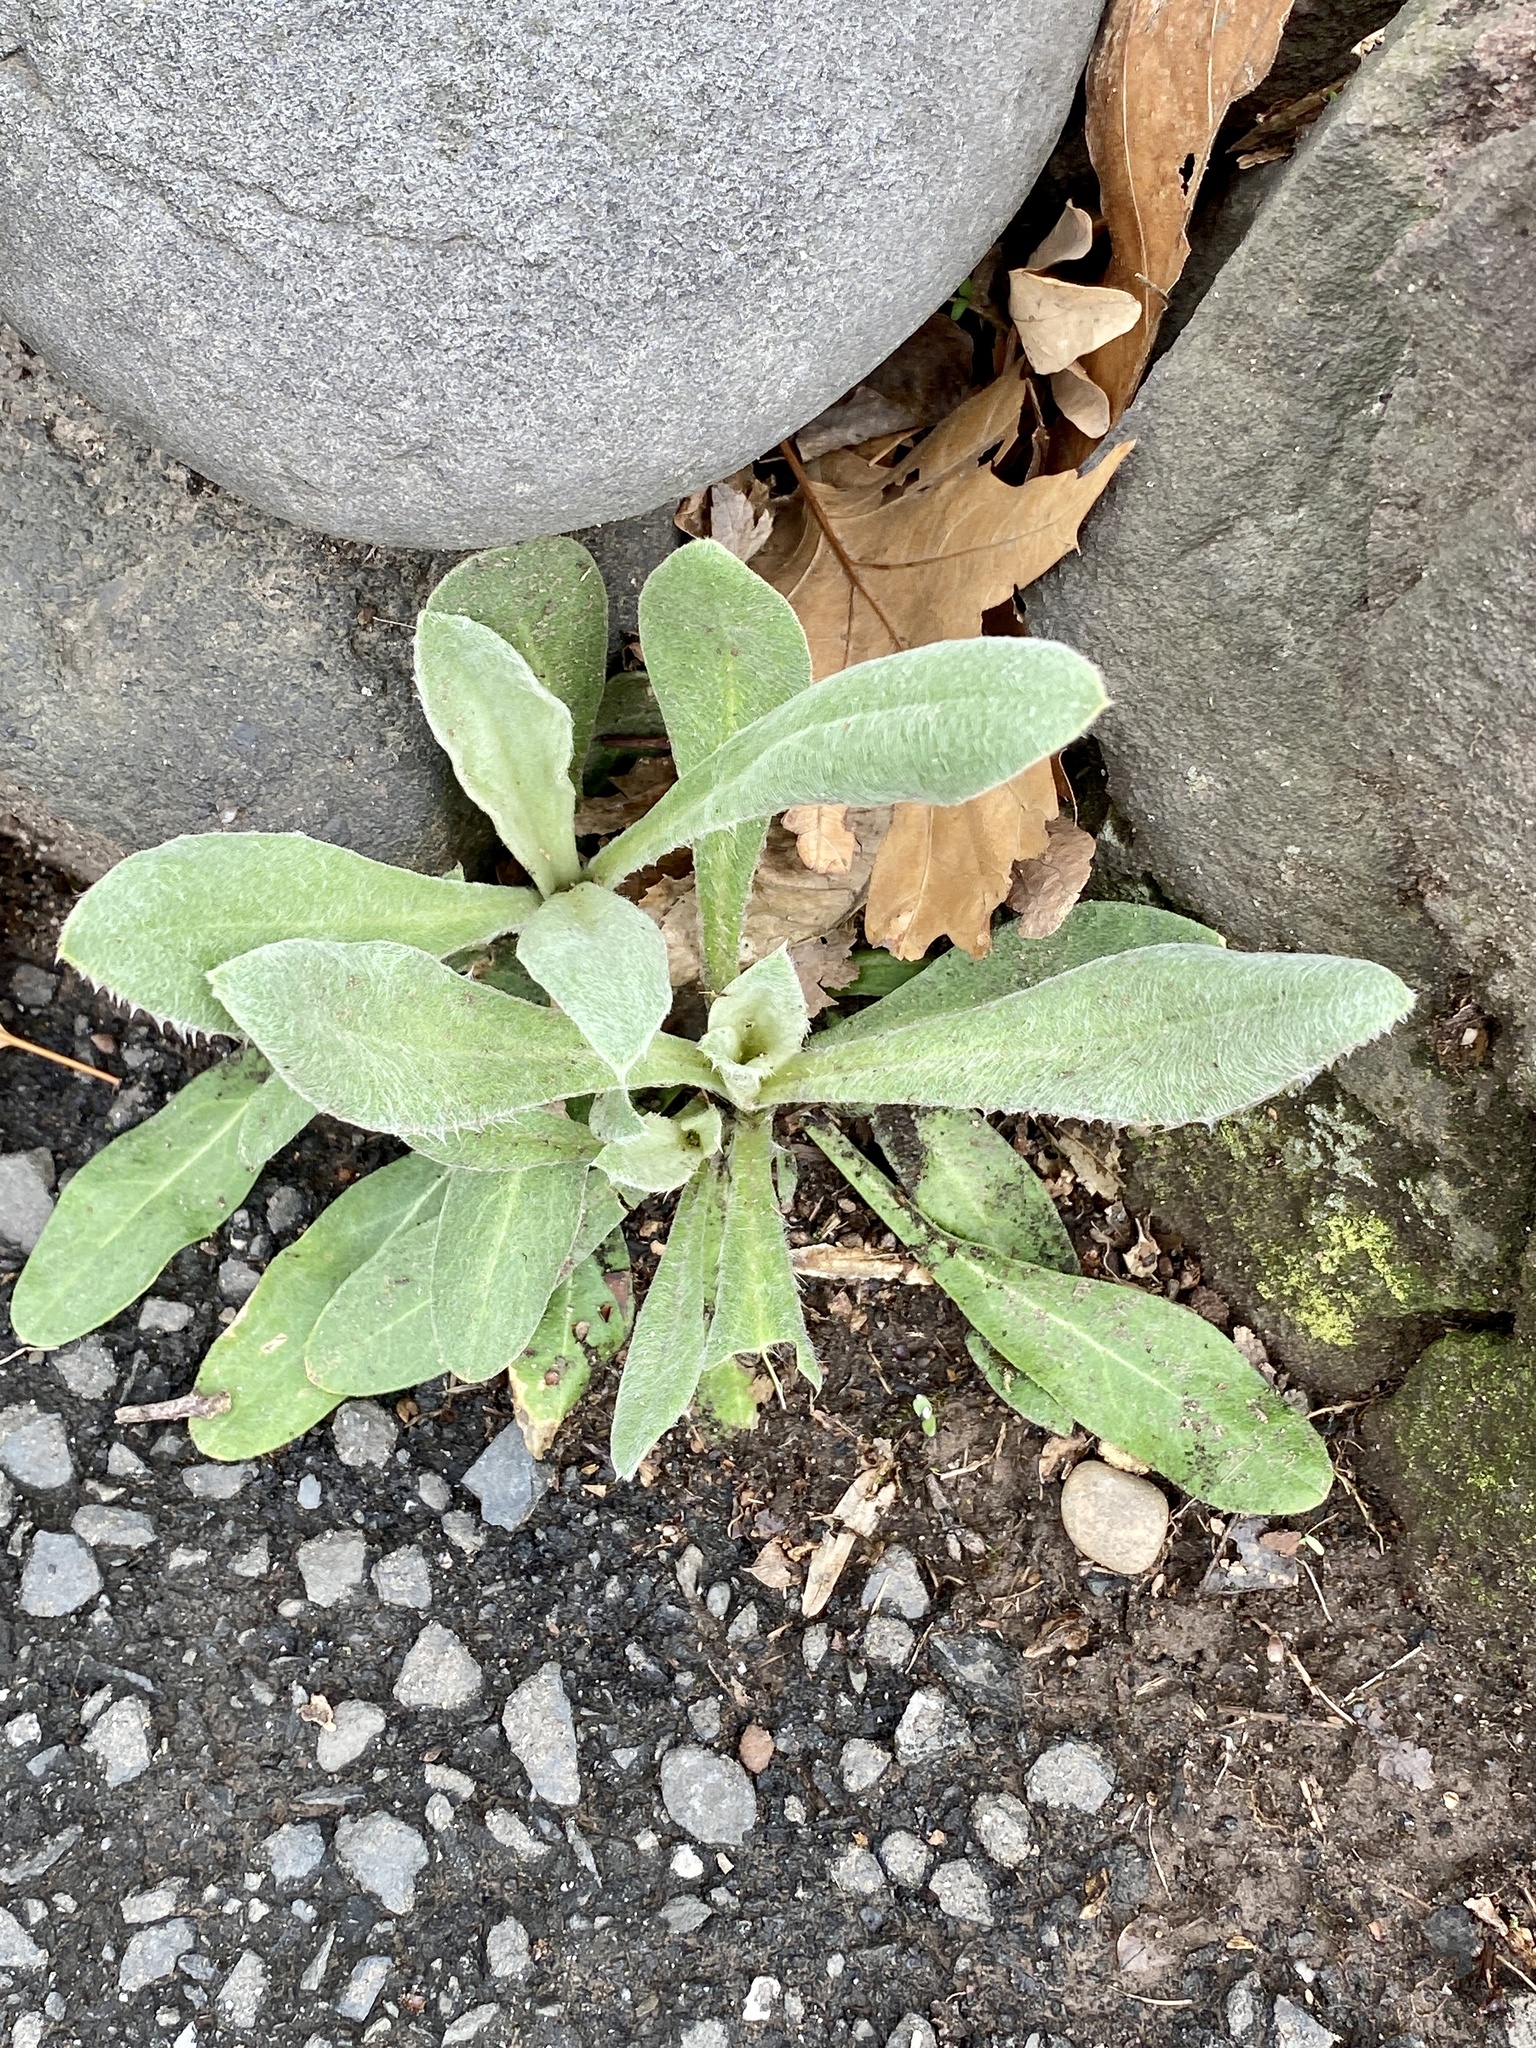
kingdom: Plantae
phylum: Tracheophyta
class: Magnoliopsida
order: Caryophyllales
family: Caryophyllaceae
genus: Silene
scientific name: Silene coronaria
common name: Rose campion
